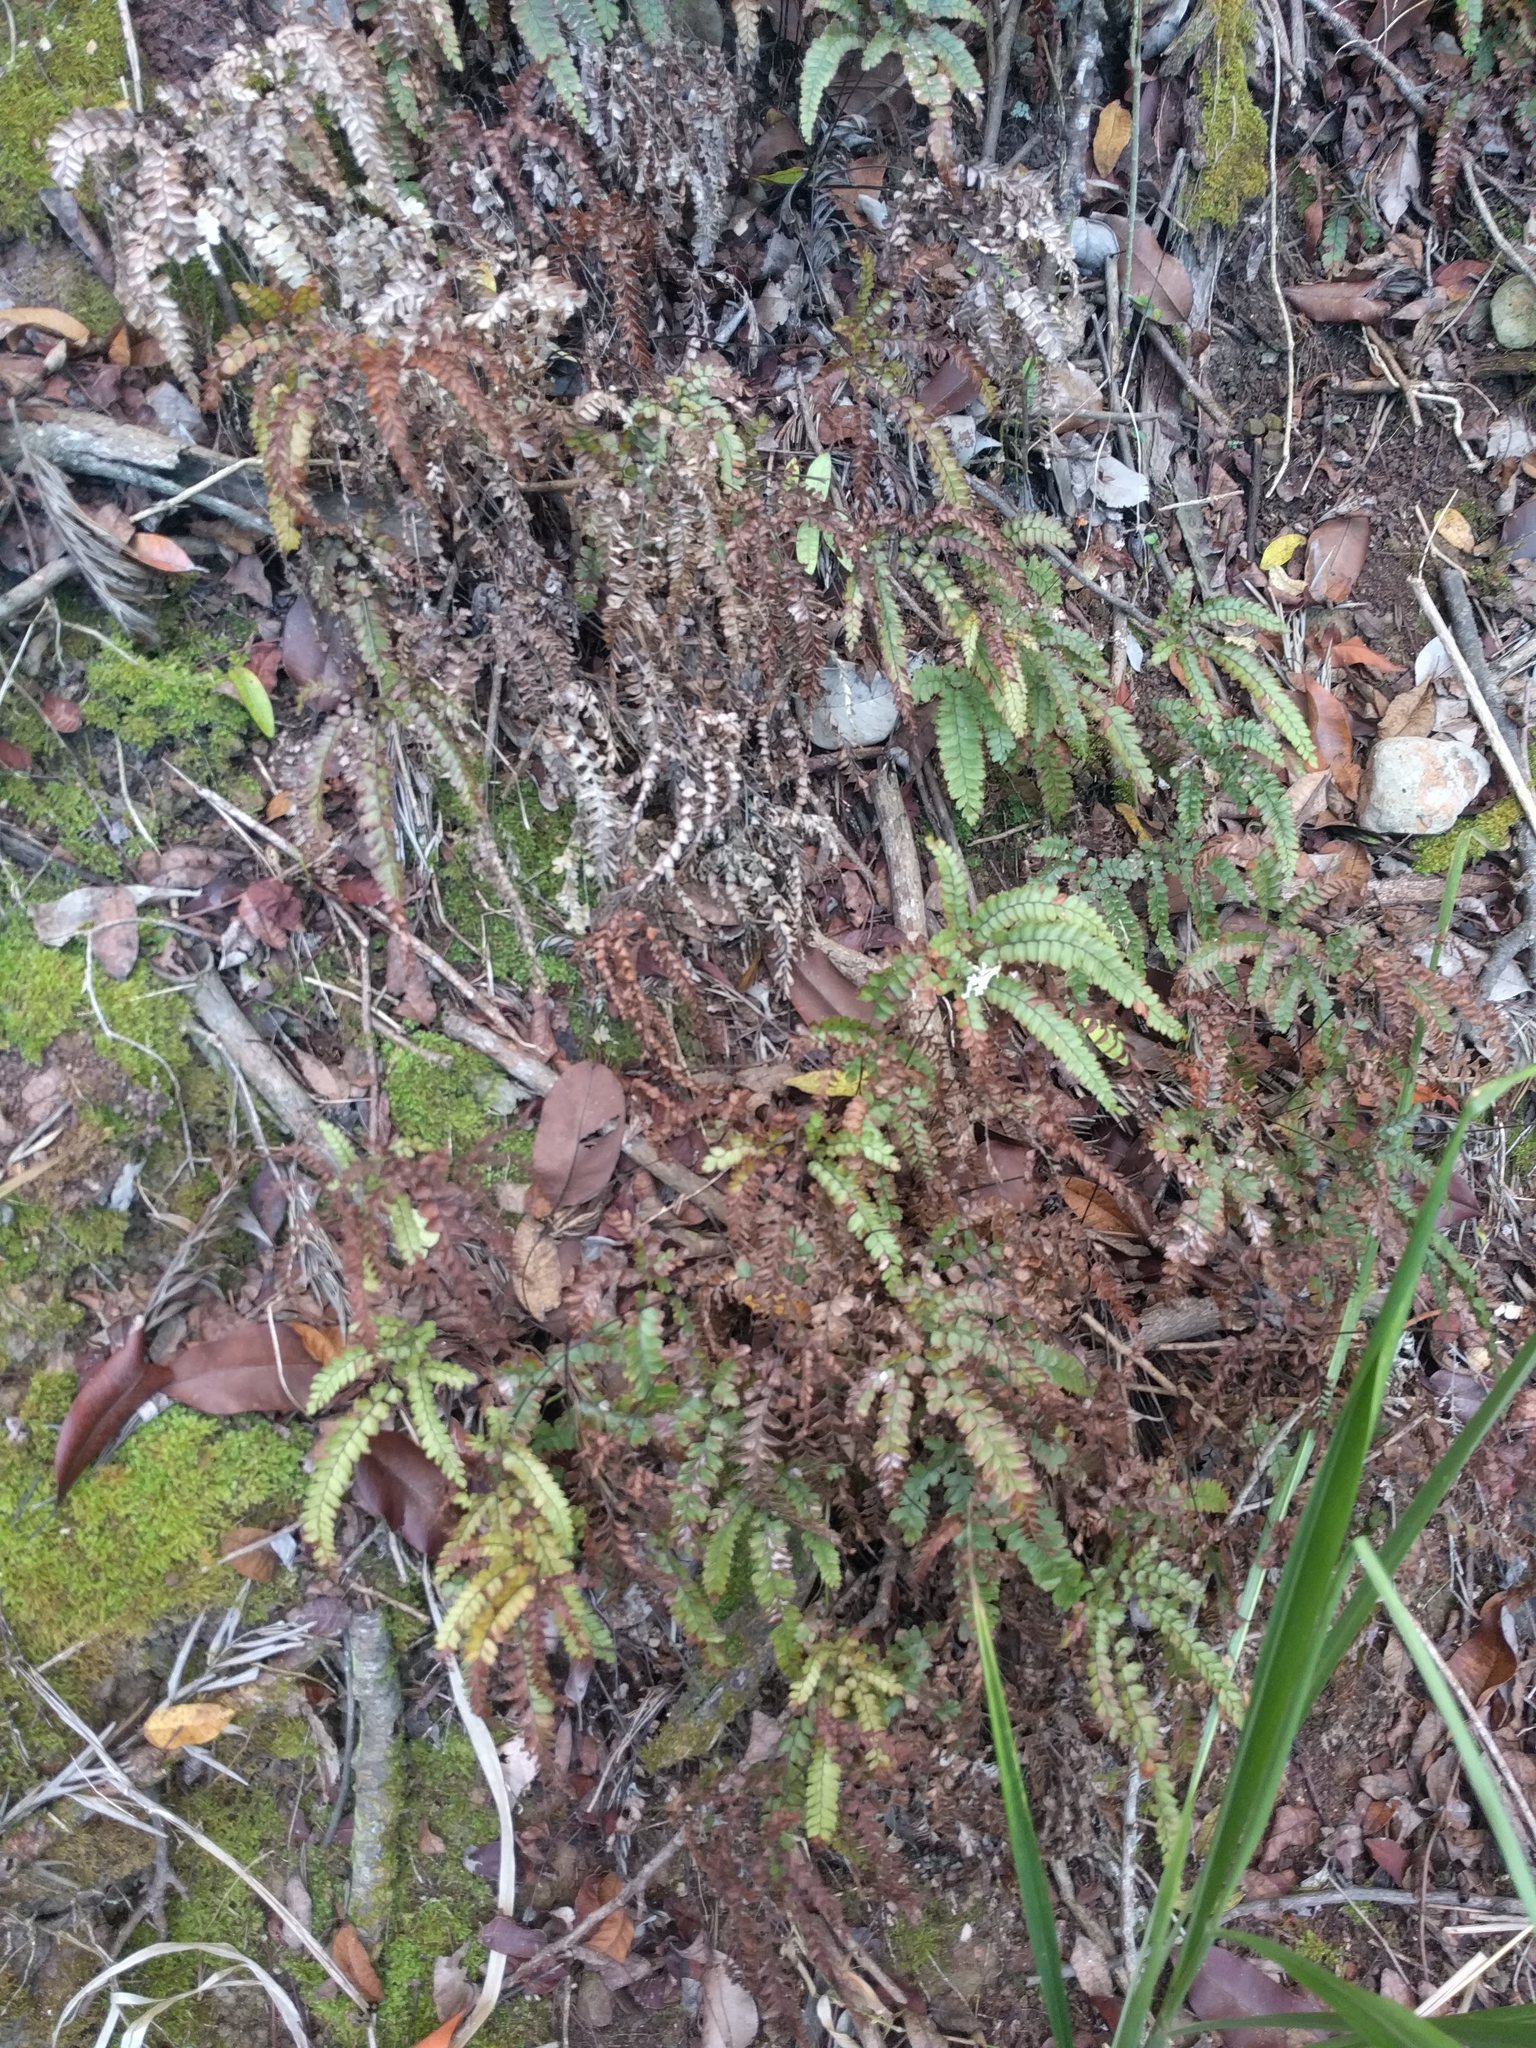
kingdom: Plantae
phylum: Tracheophyta
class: Polypodiopsida
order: Polypodiales
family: Pteridaceae
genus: Adiantum
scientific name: Adiantum hispidulum
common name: Rough maidenhair
